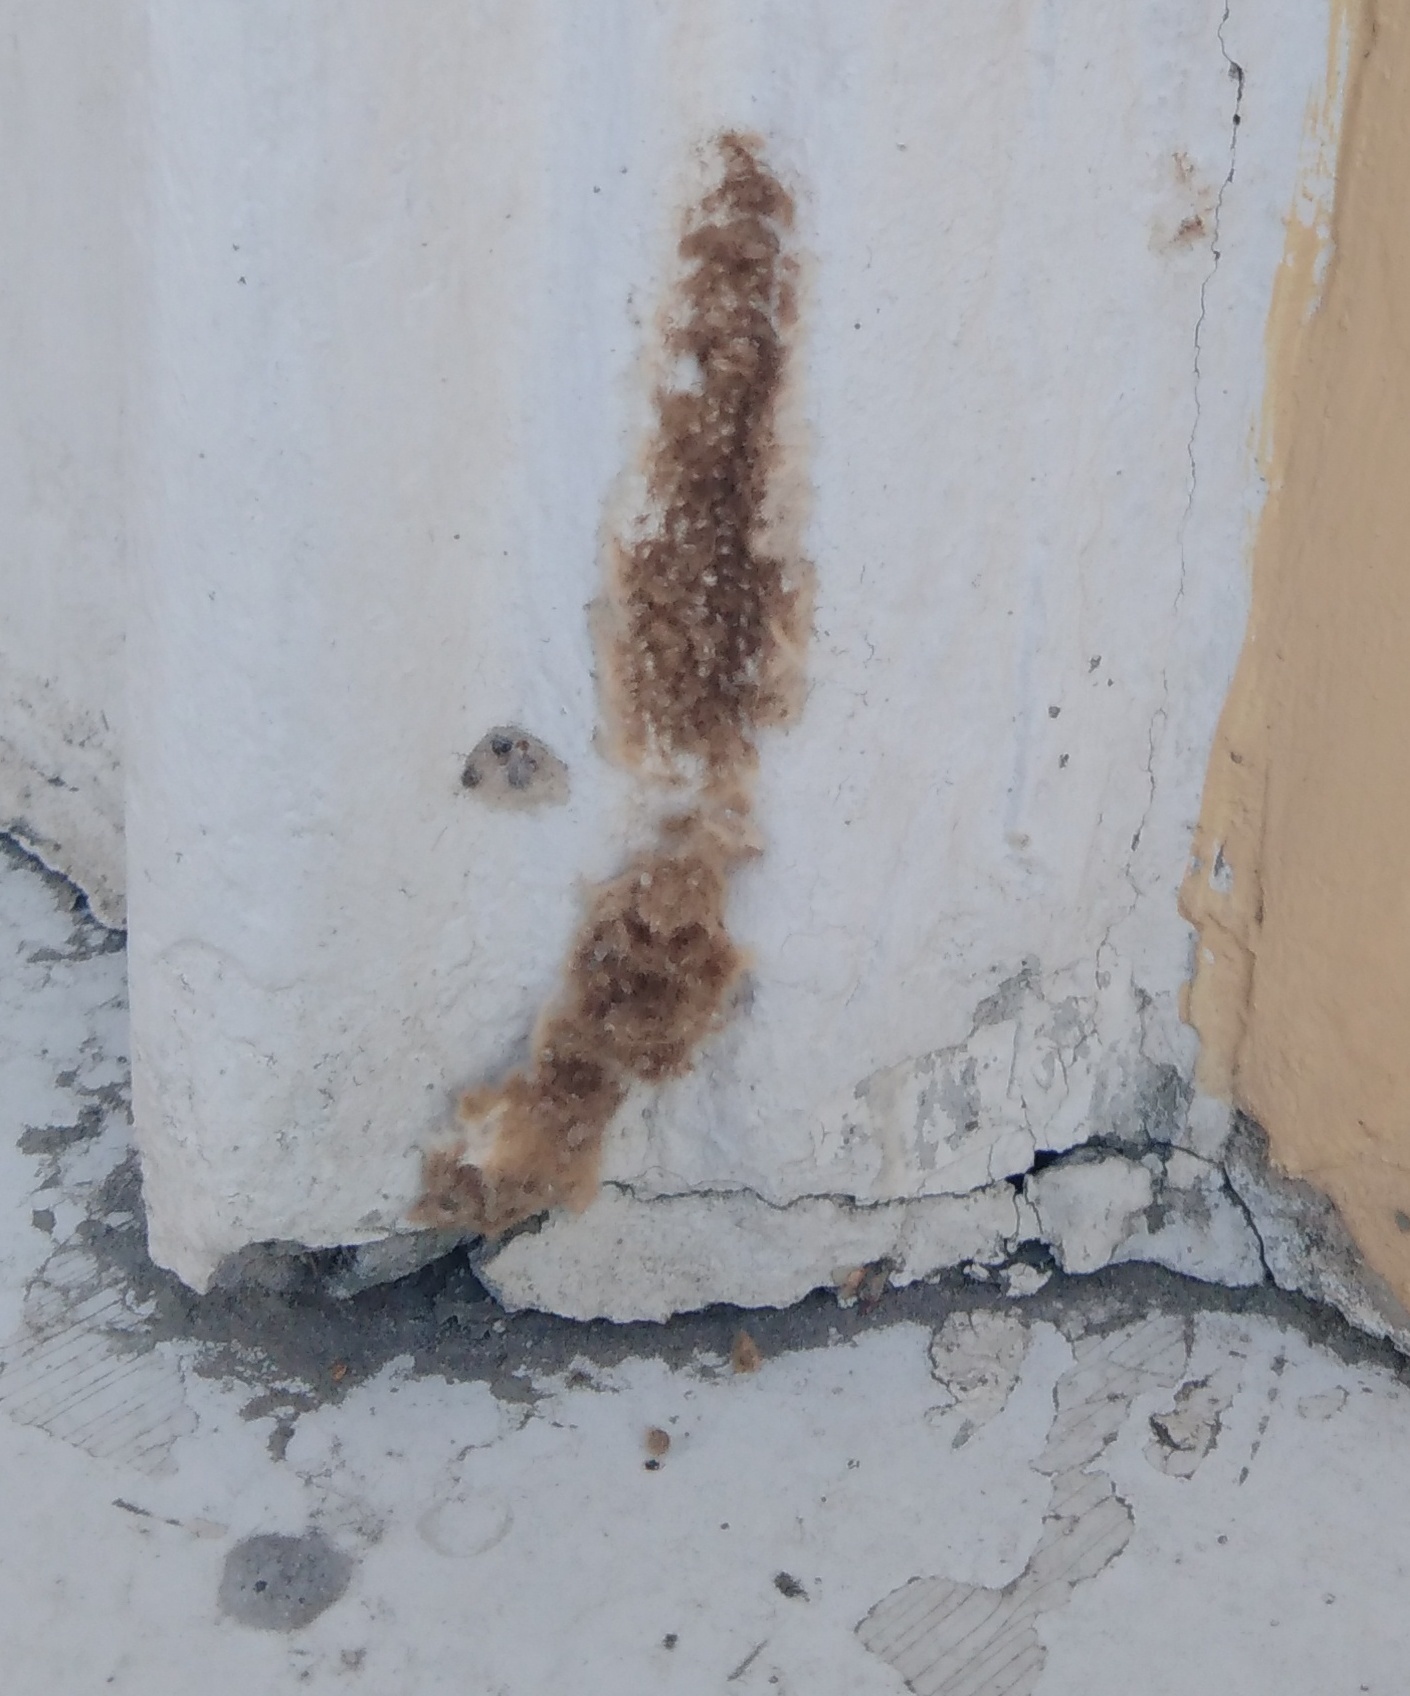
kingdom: Animalia
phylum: Arthropoda
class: Insecta
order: Lepidoptera
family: Erebidae
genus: Lymantria
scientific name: Lymantria dispar
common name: Gypsy moth
